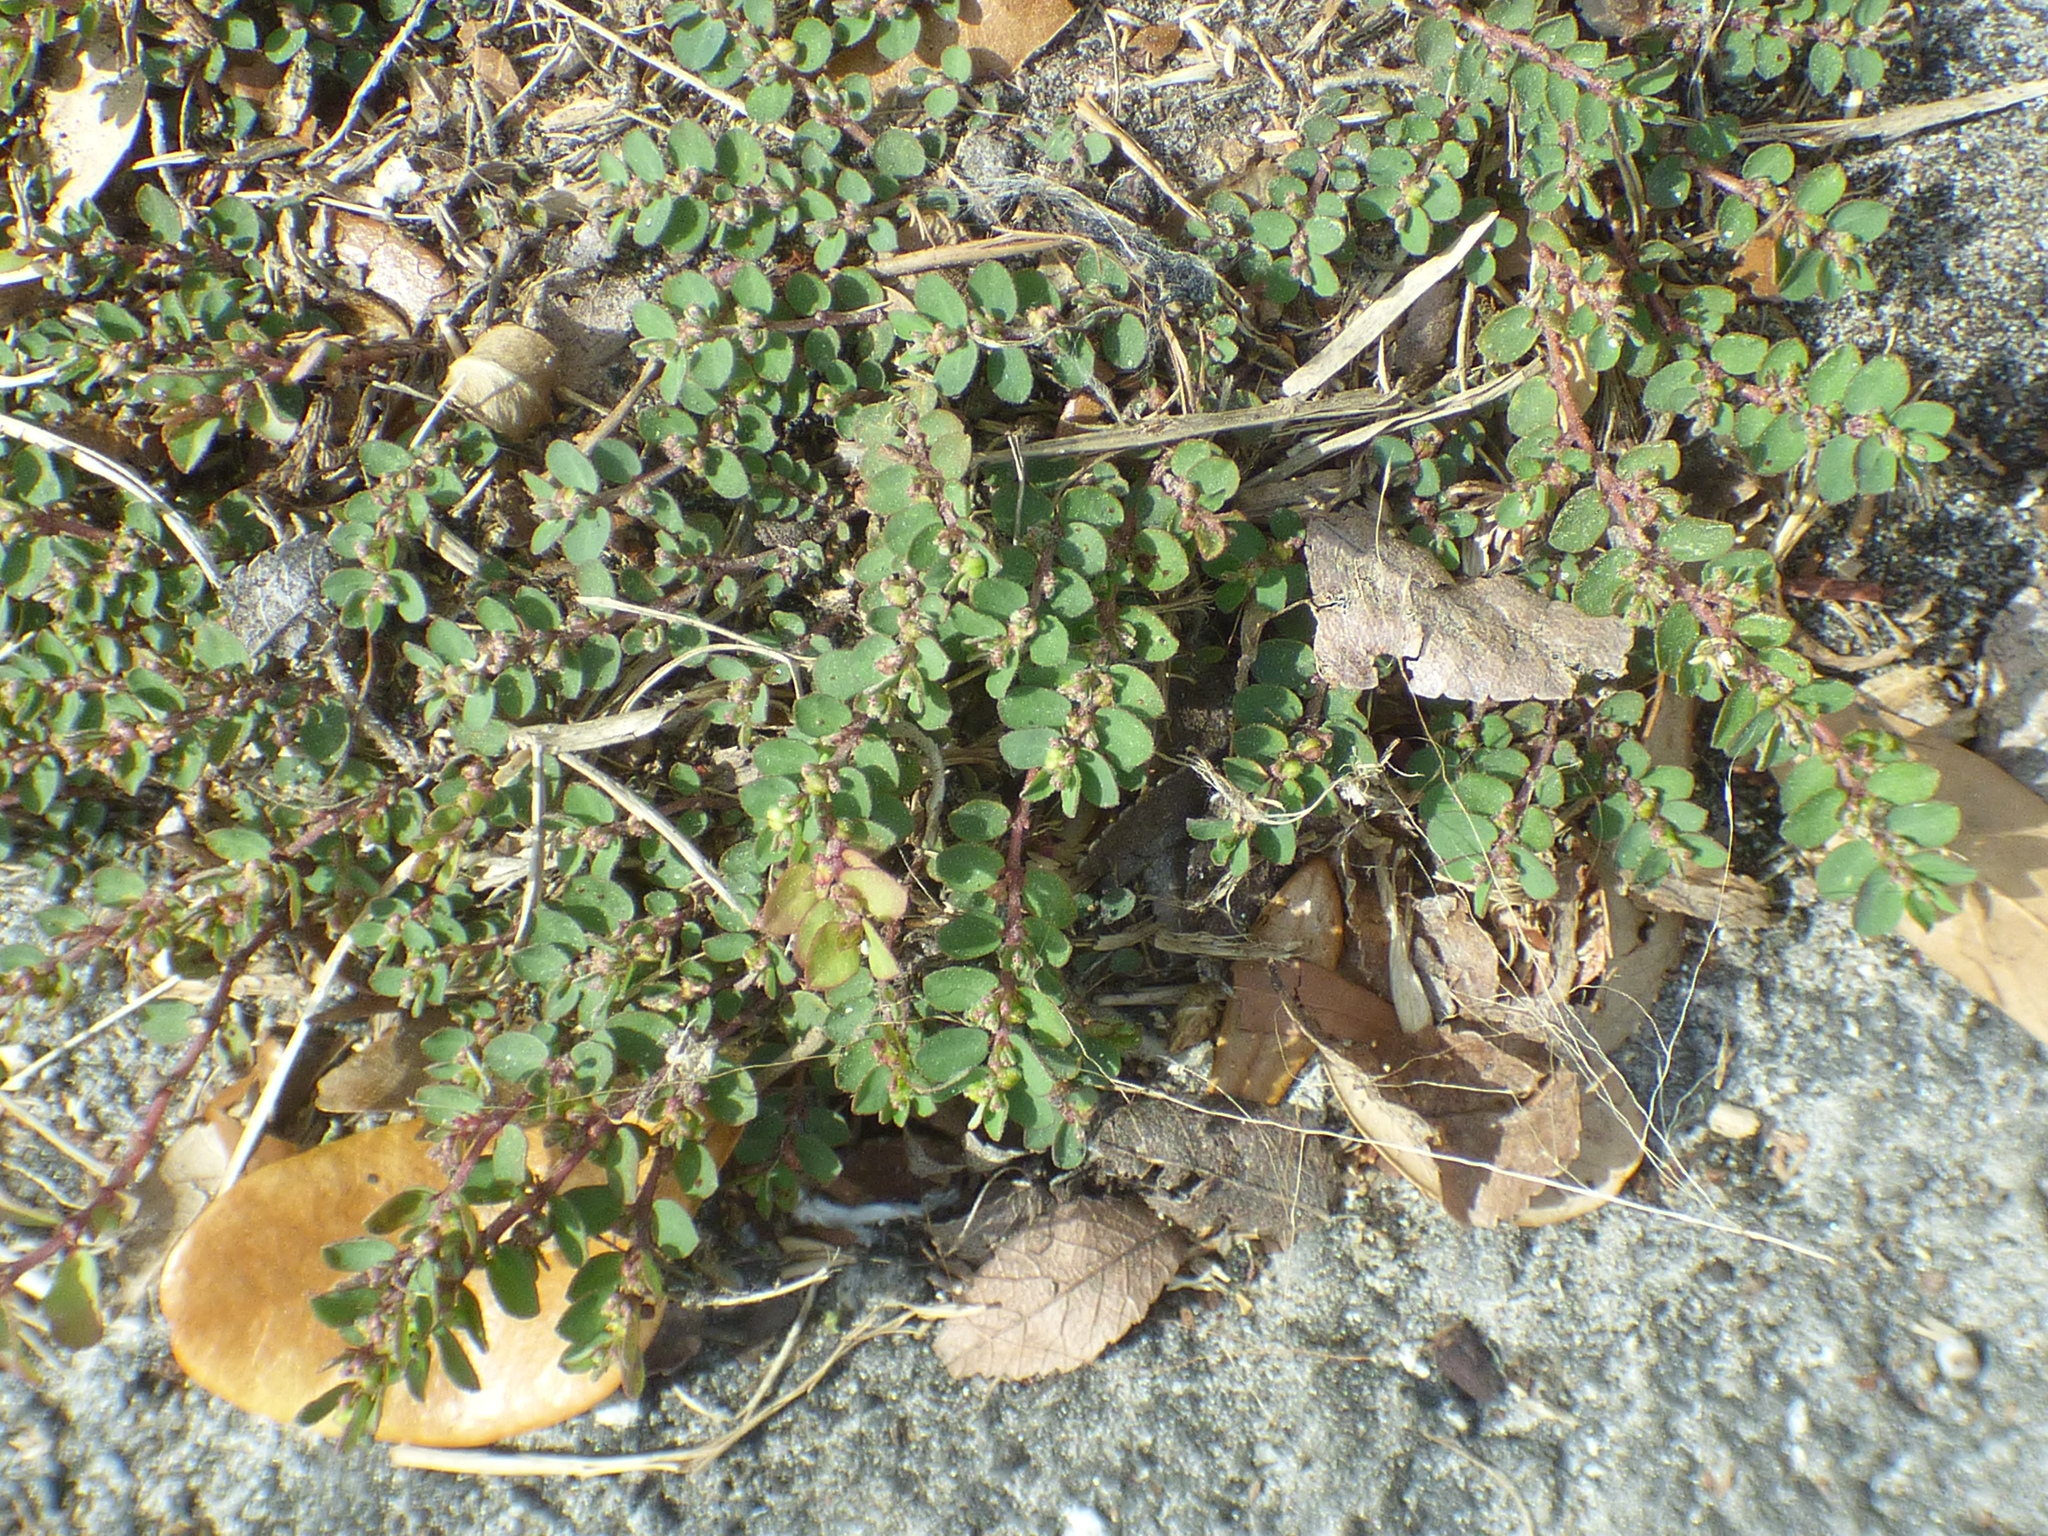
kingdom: Plantae
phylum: Tracheophyta
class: Magnoliopsida
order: Malpighiales
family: Euphorbiaceae
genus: Euphorbia
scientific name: Euphorbia prostrata
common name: Prostrate sandmat
